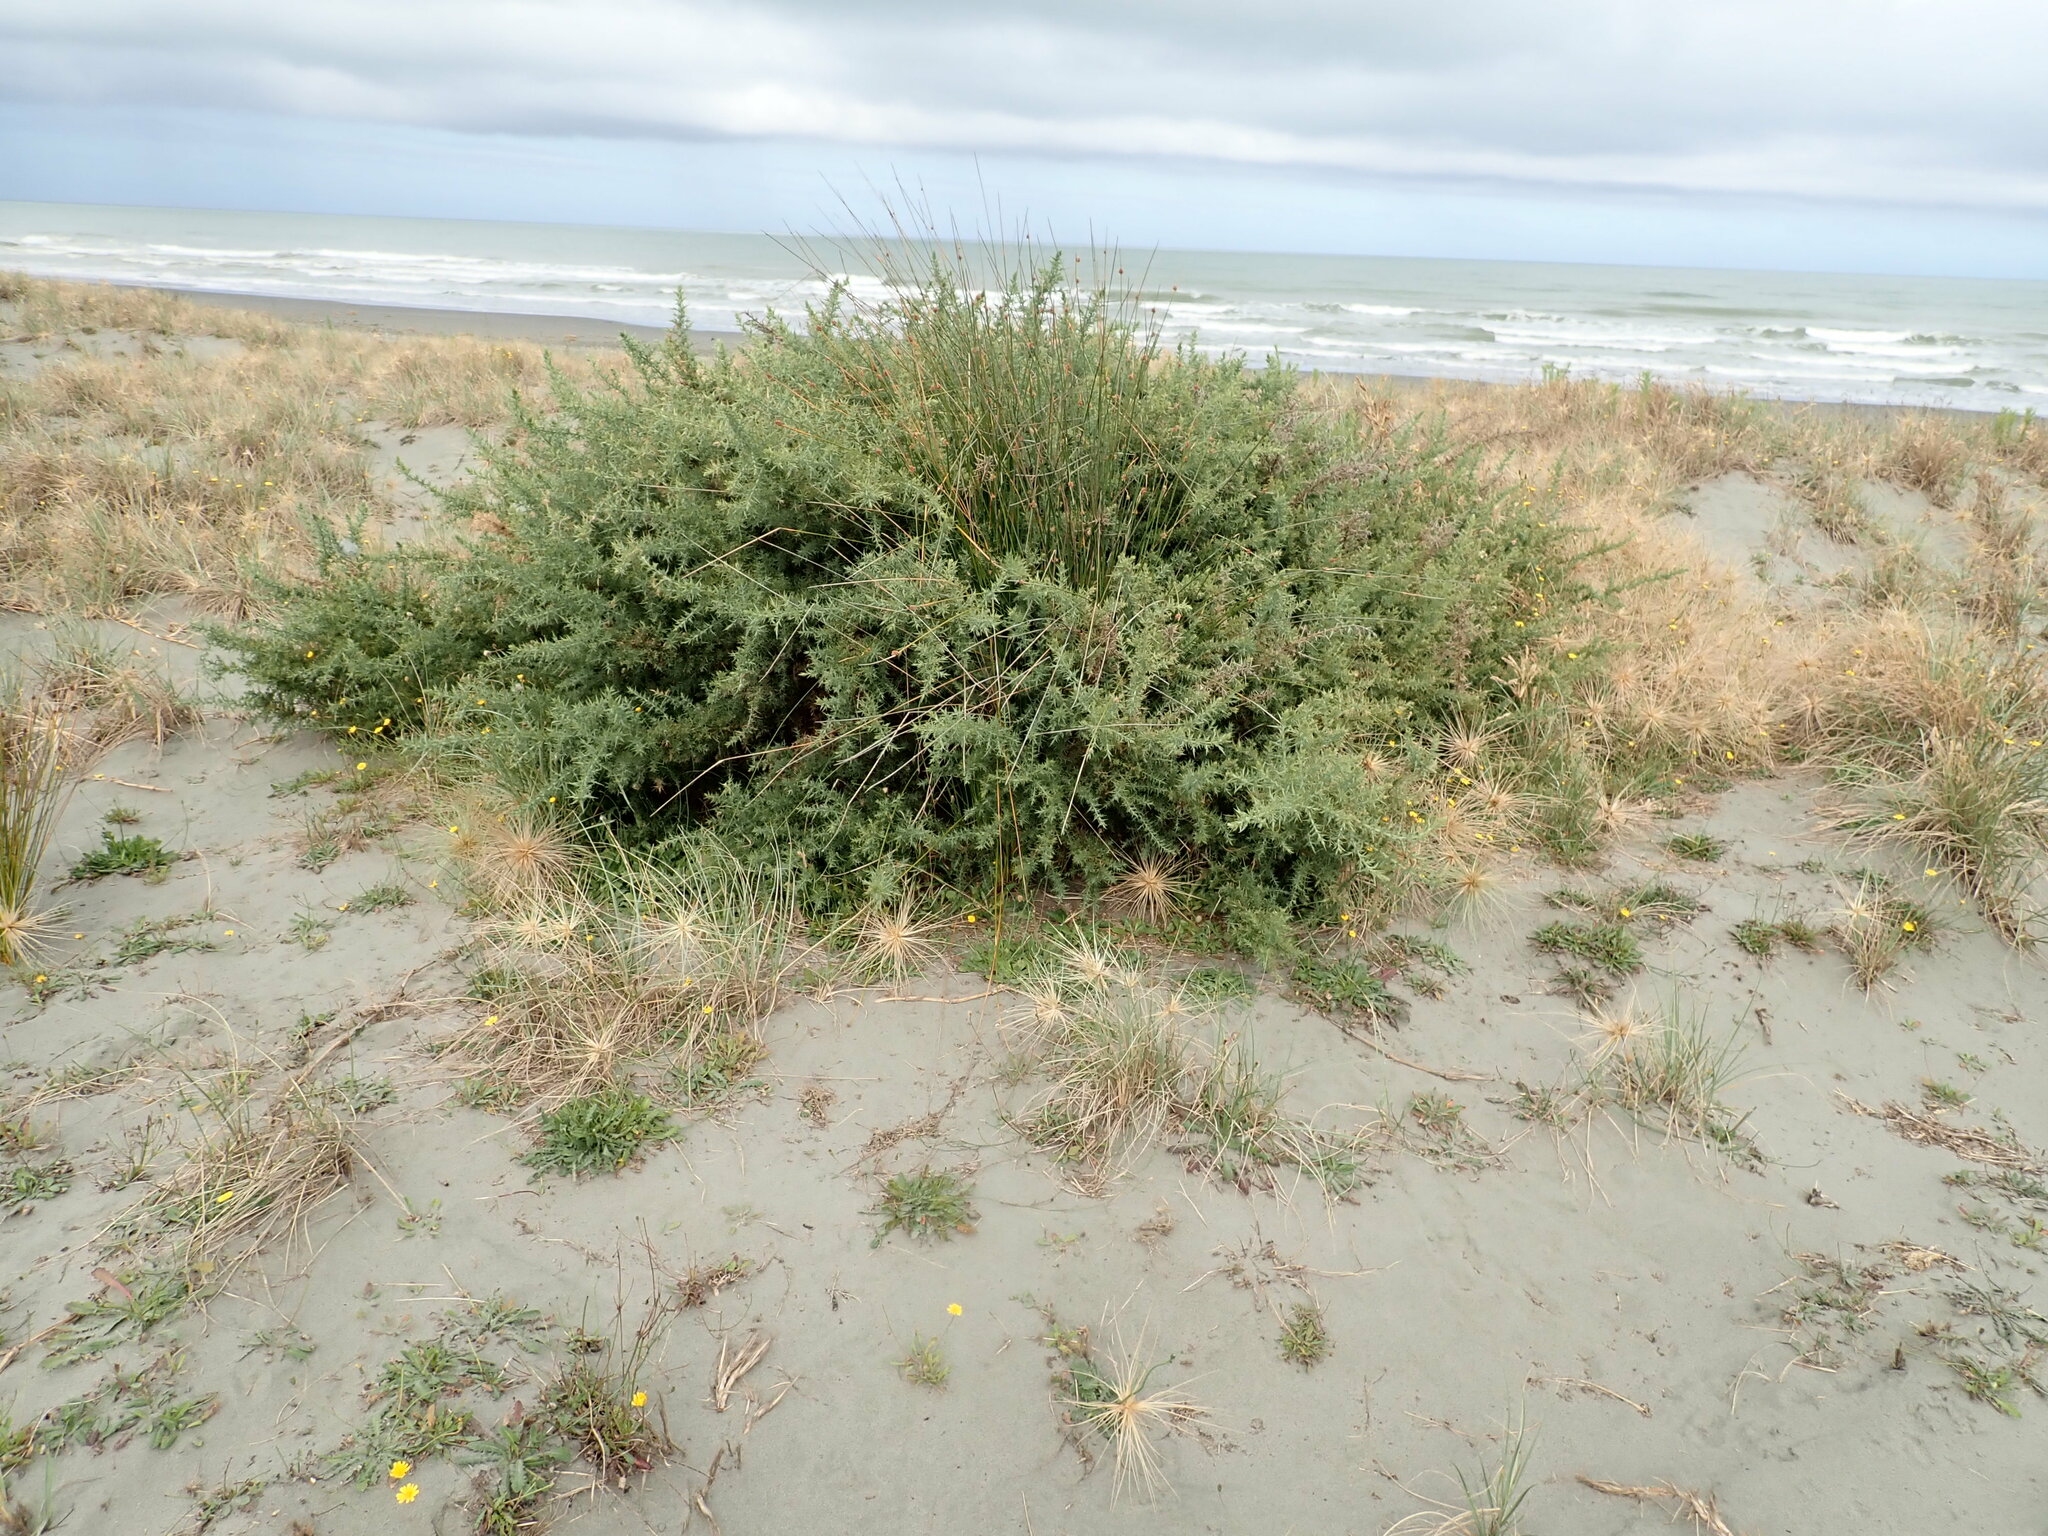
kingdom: Plantae
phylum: Tracheophyta
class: Magnoliopsida
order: Fabales
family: Fabaceae
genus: Ulex
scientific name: Ulex europaeus
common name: Common gorse
